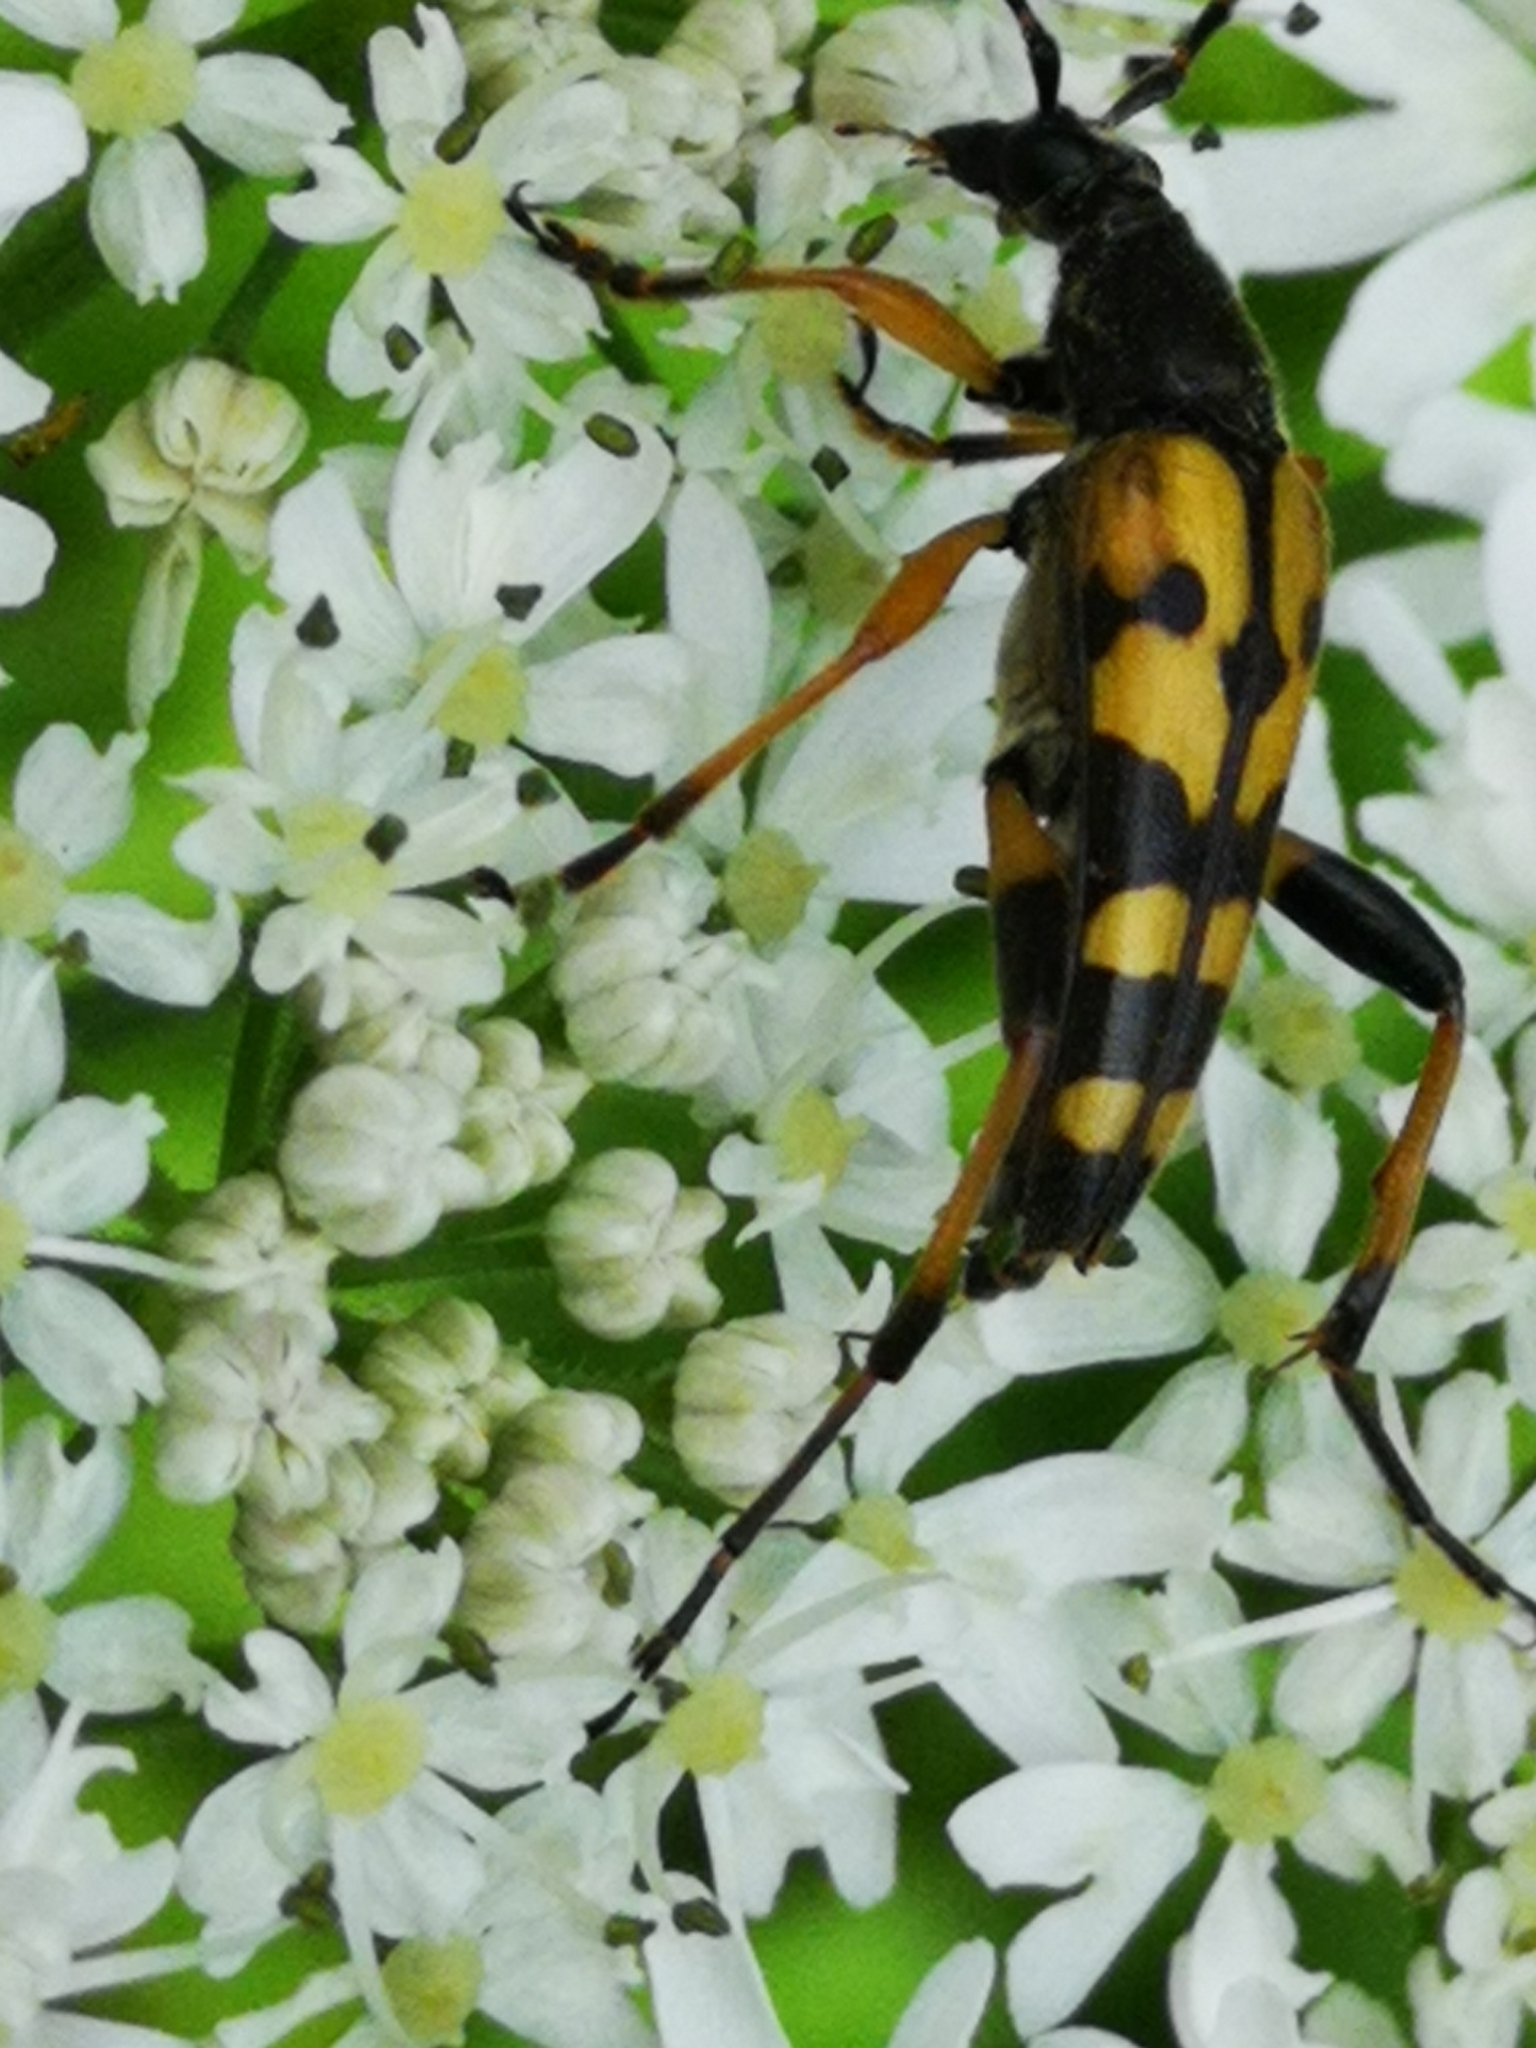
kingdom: Animalia
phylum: Arthropoda
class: Insecta
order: Coleoptera
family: Cerambycidae
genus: Rutpela
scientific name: Rutpela maculata
